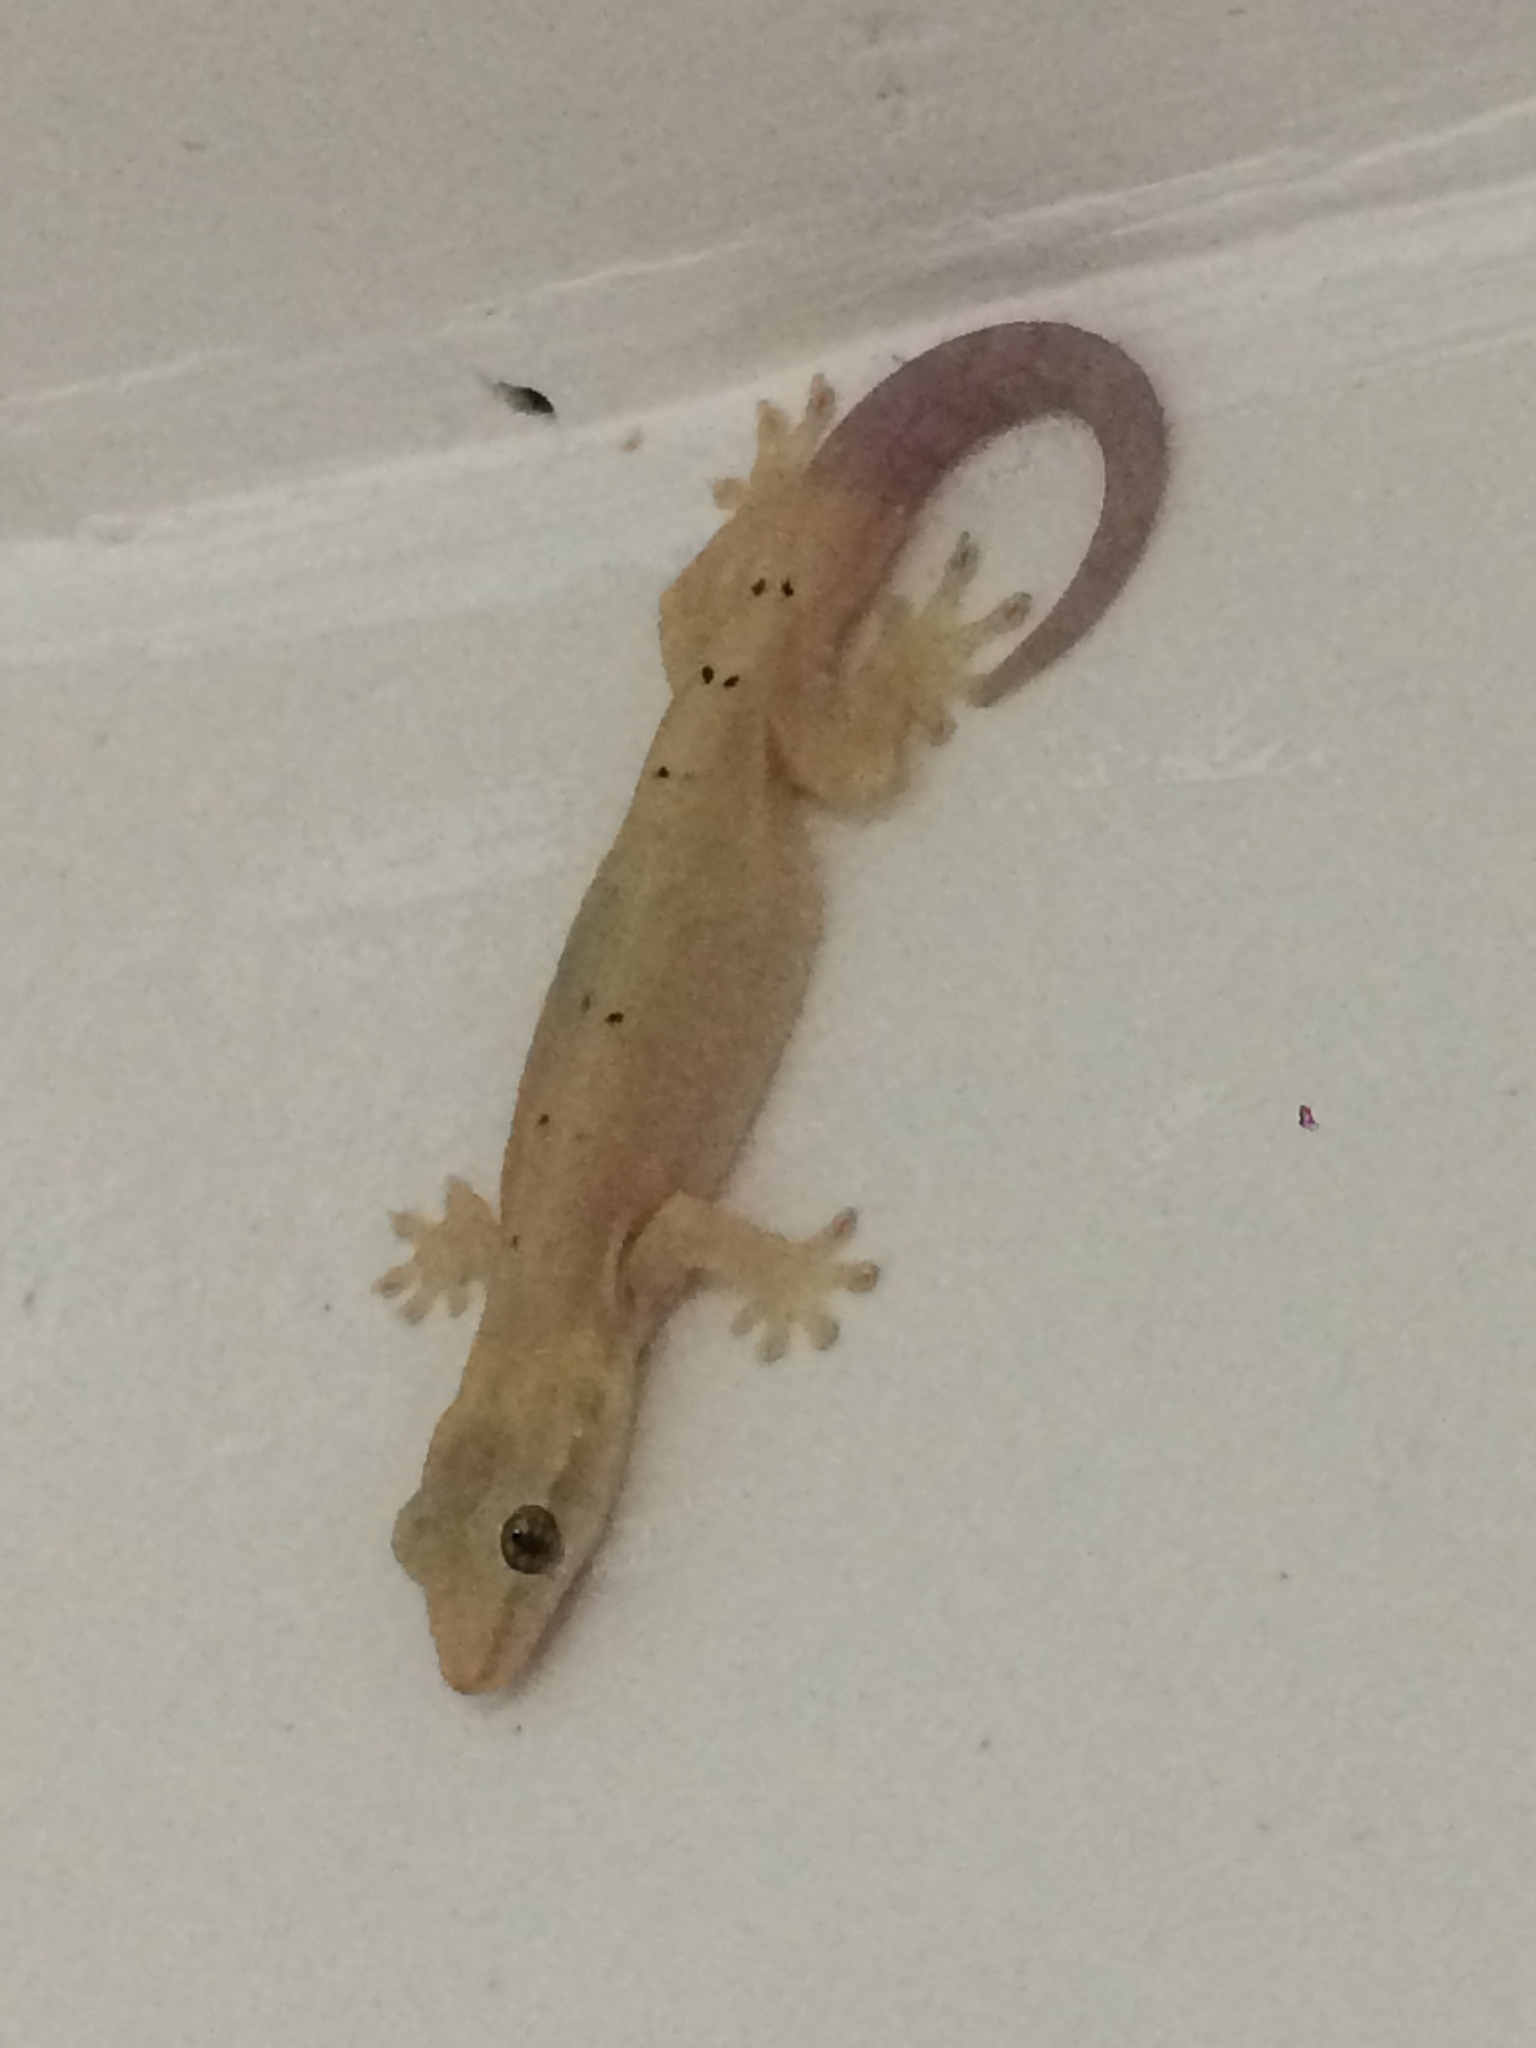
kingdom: Animalia
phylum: Chordata
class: Squamata
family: Gekkonidae
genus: Lepidodactylus
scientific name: Lepidodactylus lugubris
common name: Mourning gecko
